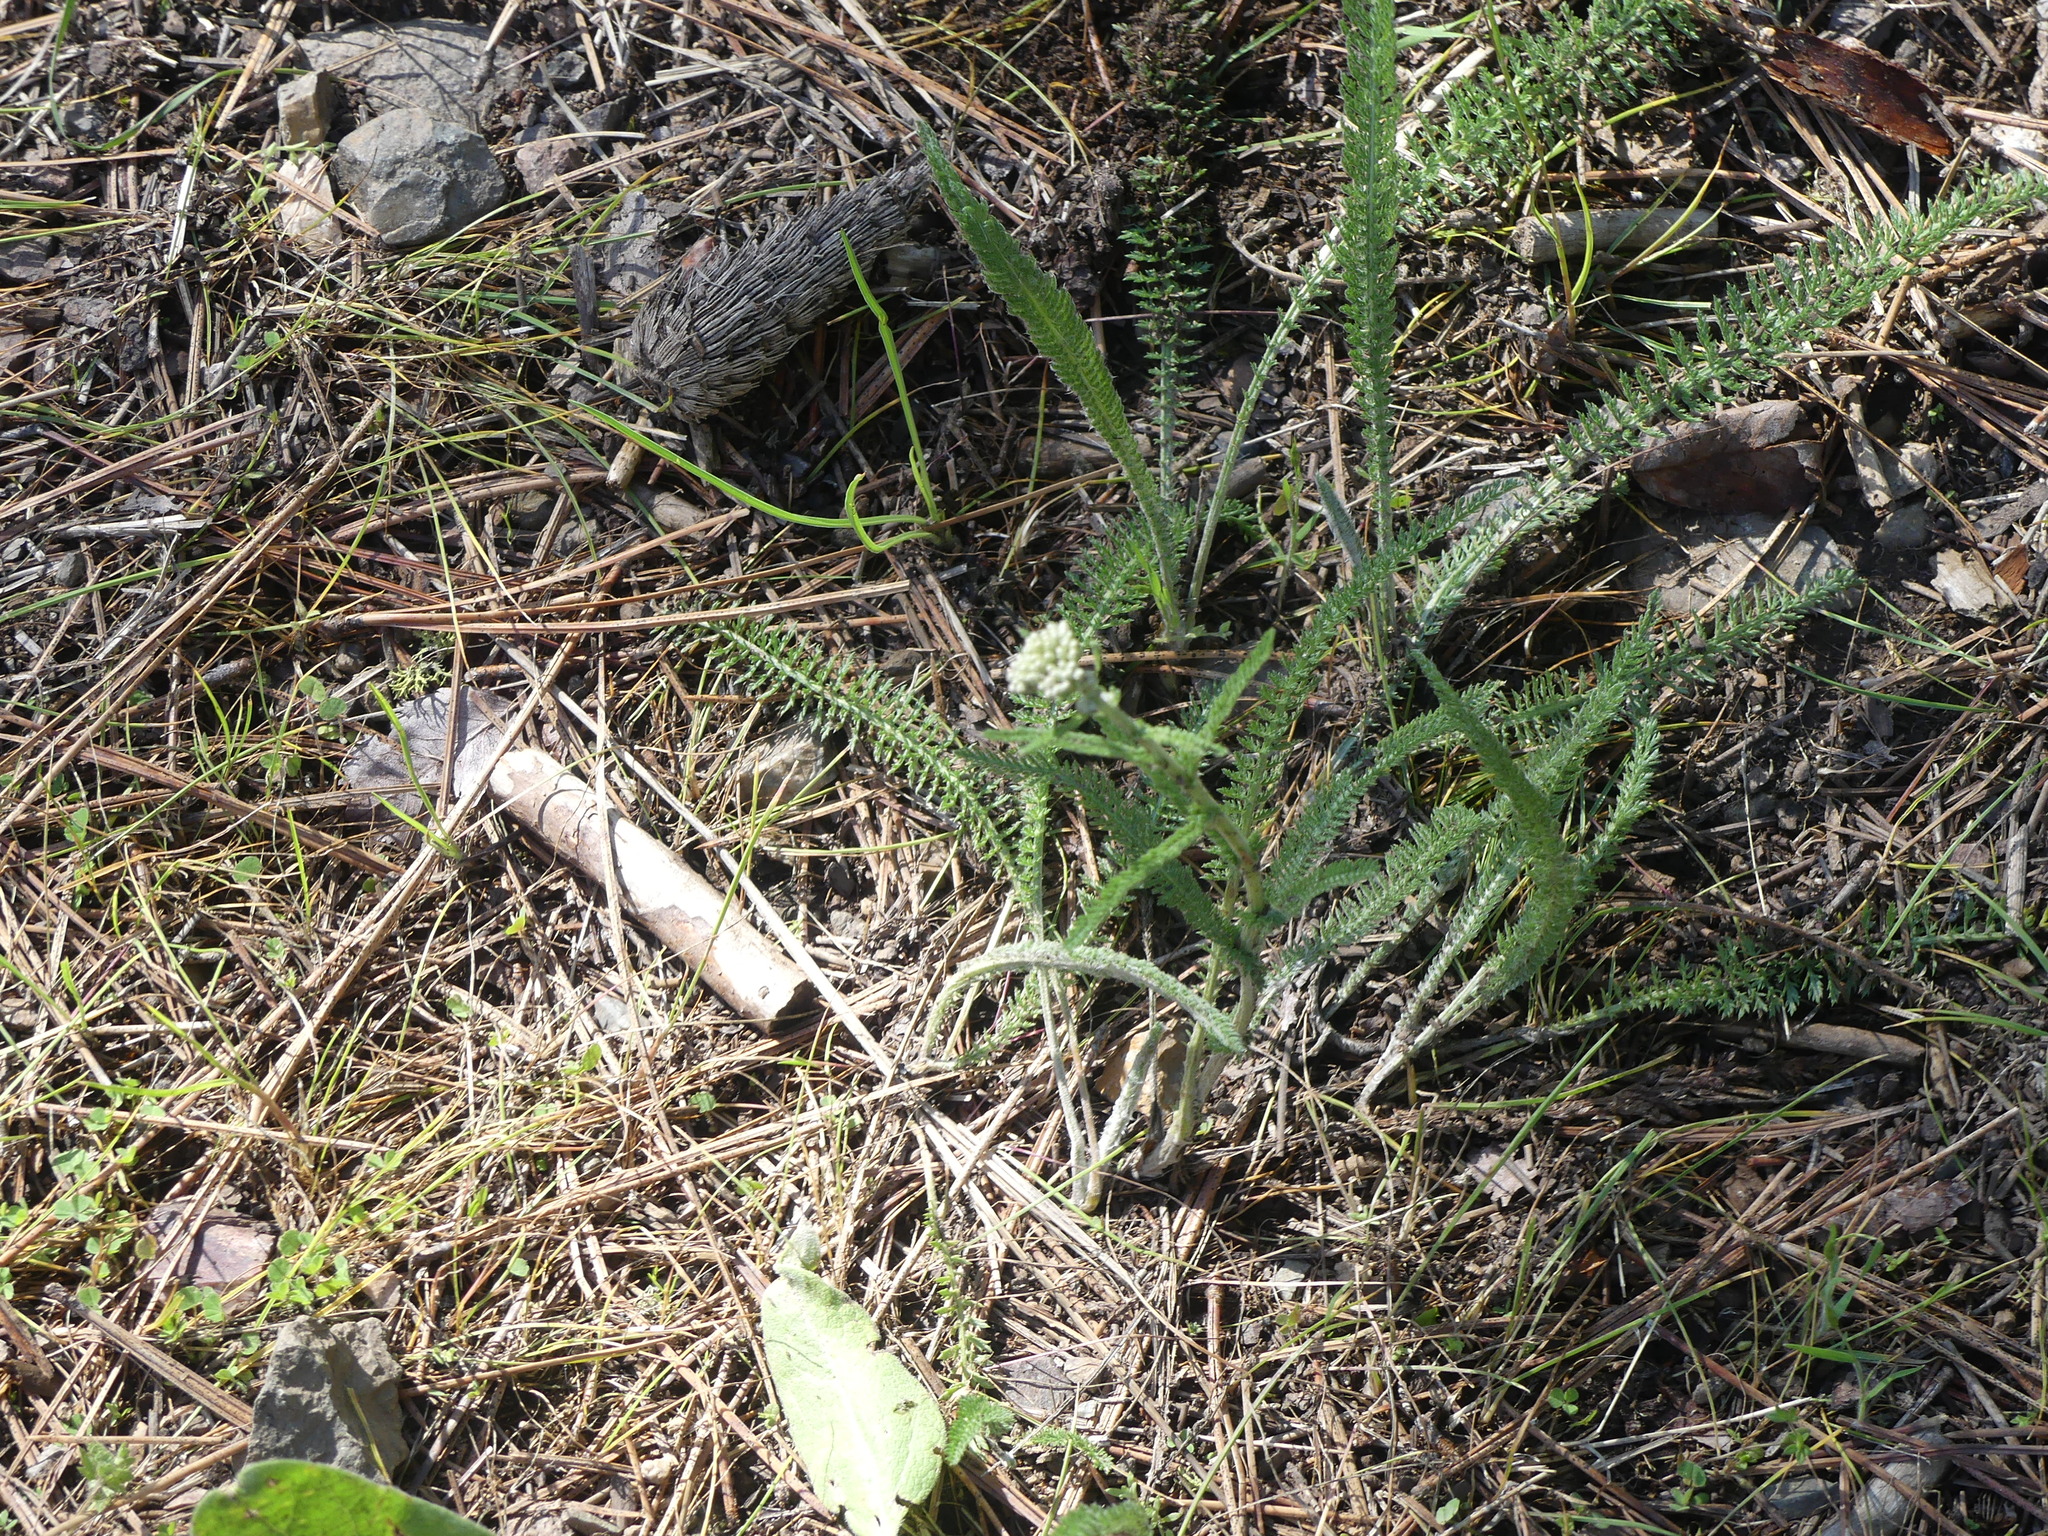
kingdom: Plantae
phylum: Tracheophyta
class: Magnoliopsida
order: Asterales
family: Asteraceae
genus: Achillea
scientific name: Achillea millefolium
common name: Yarrow
